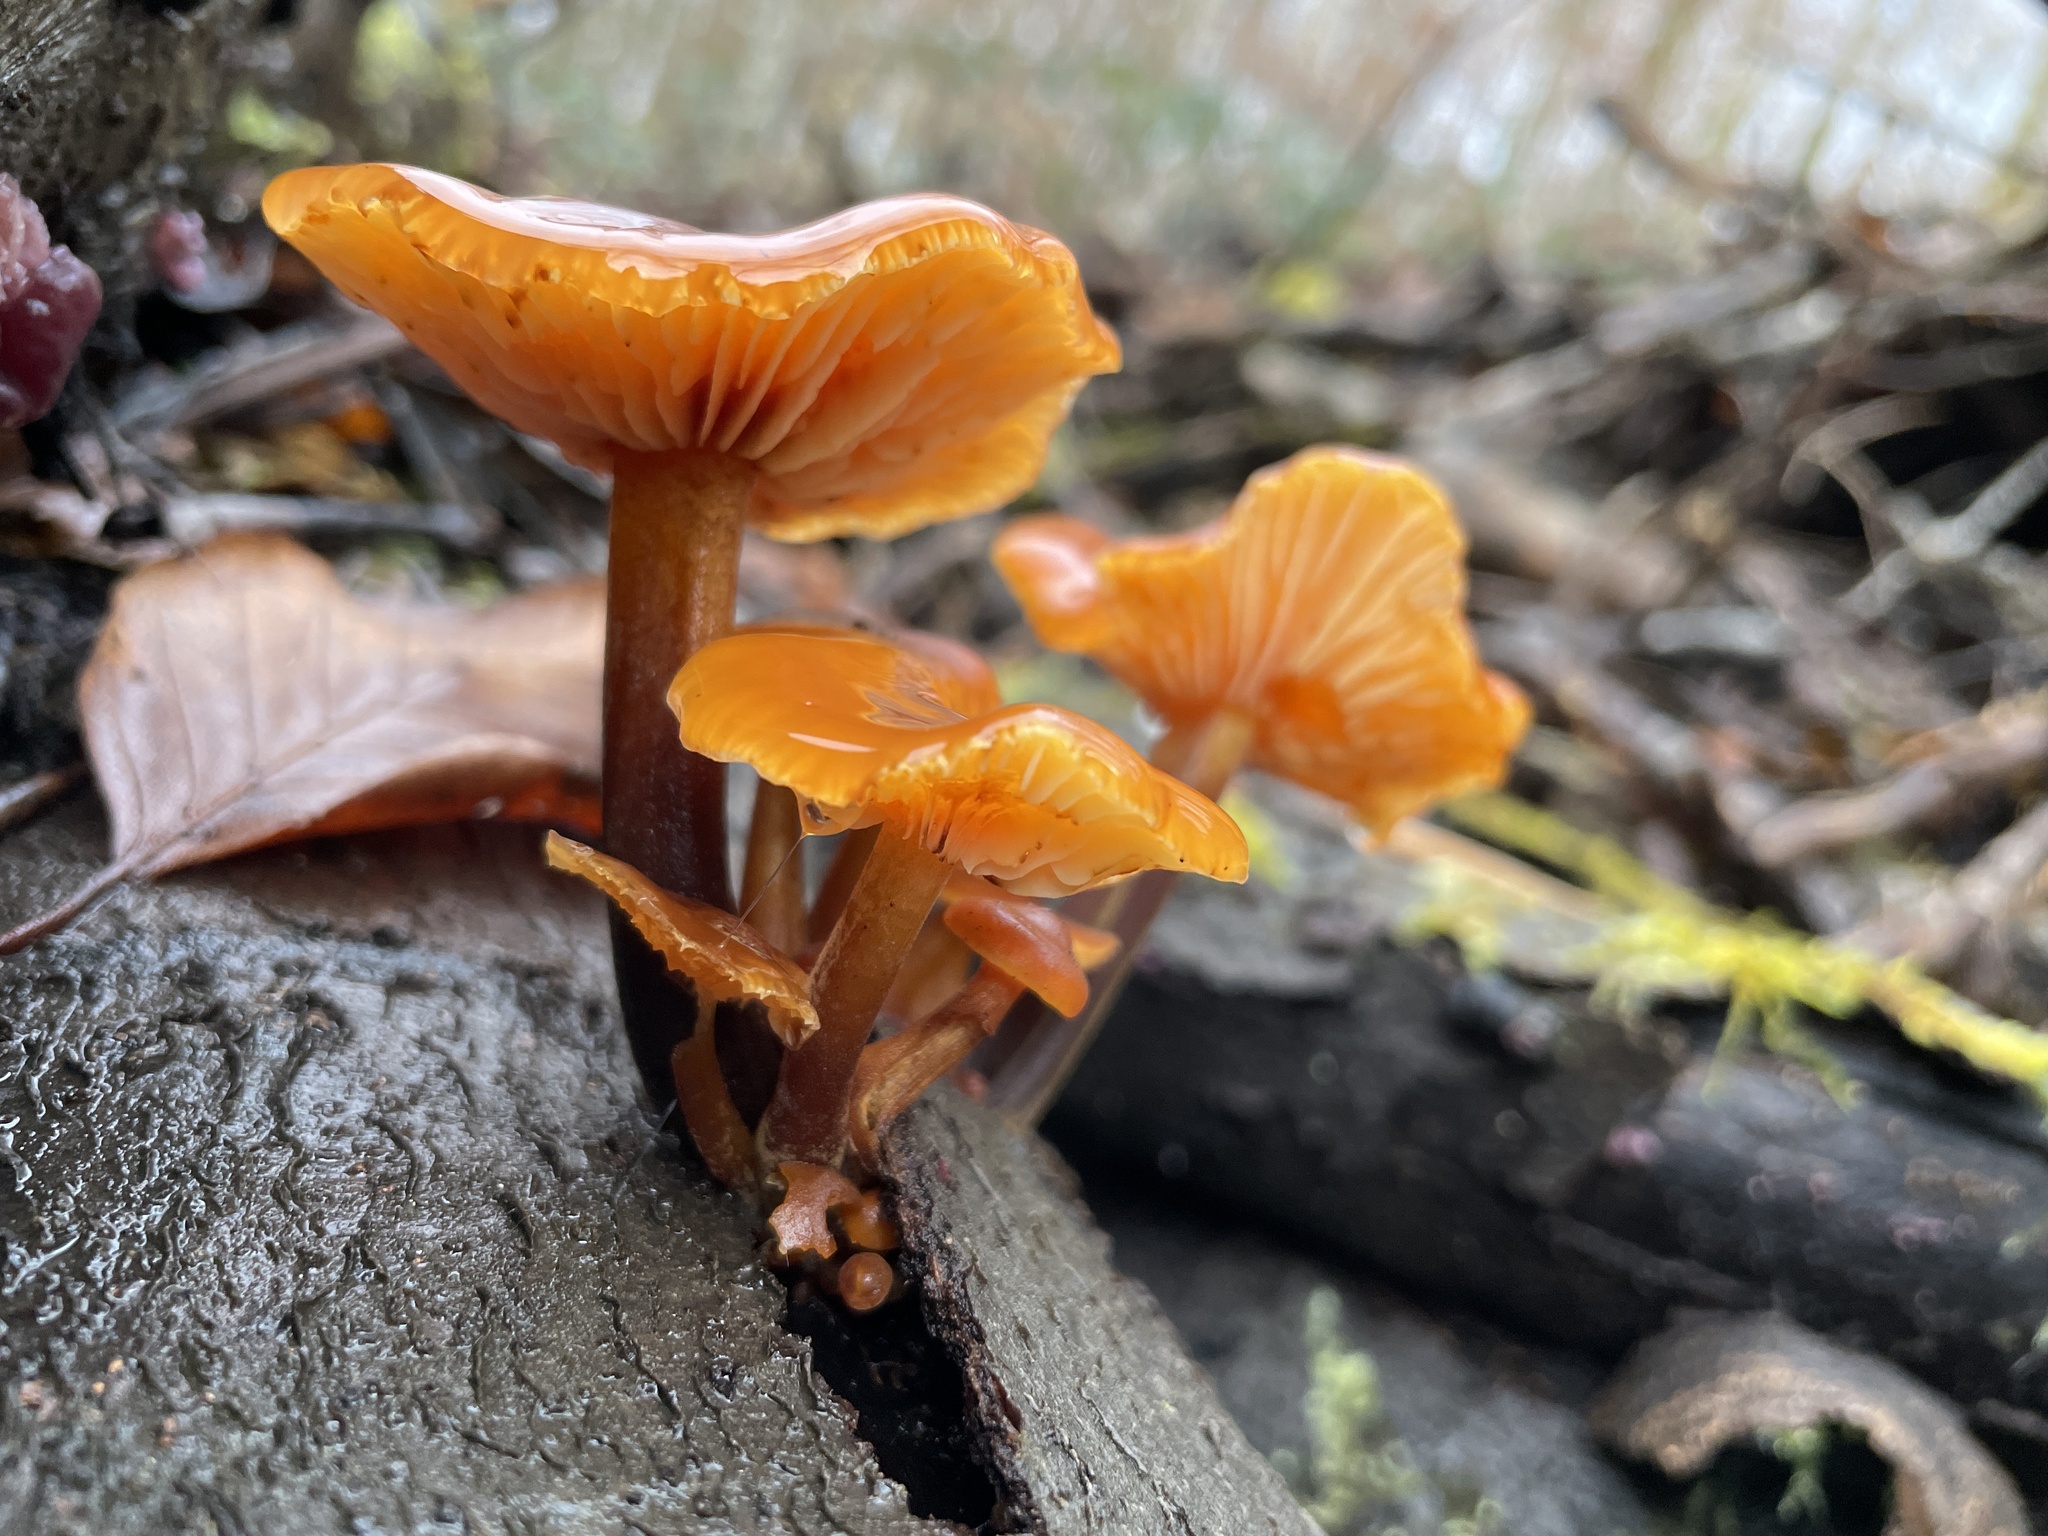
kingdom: Fungi
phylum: Basidiomycota
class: Agaricomycetes
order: Agaricales
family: Physalacriaceae
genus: Flammulina
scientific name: Flammulina
